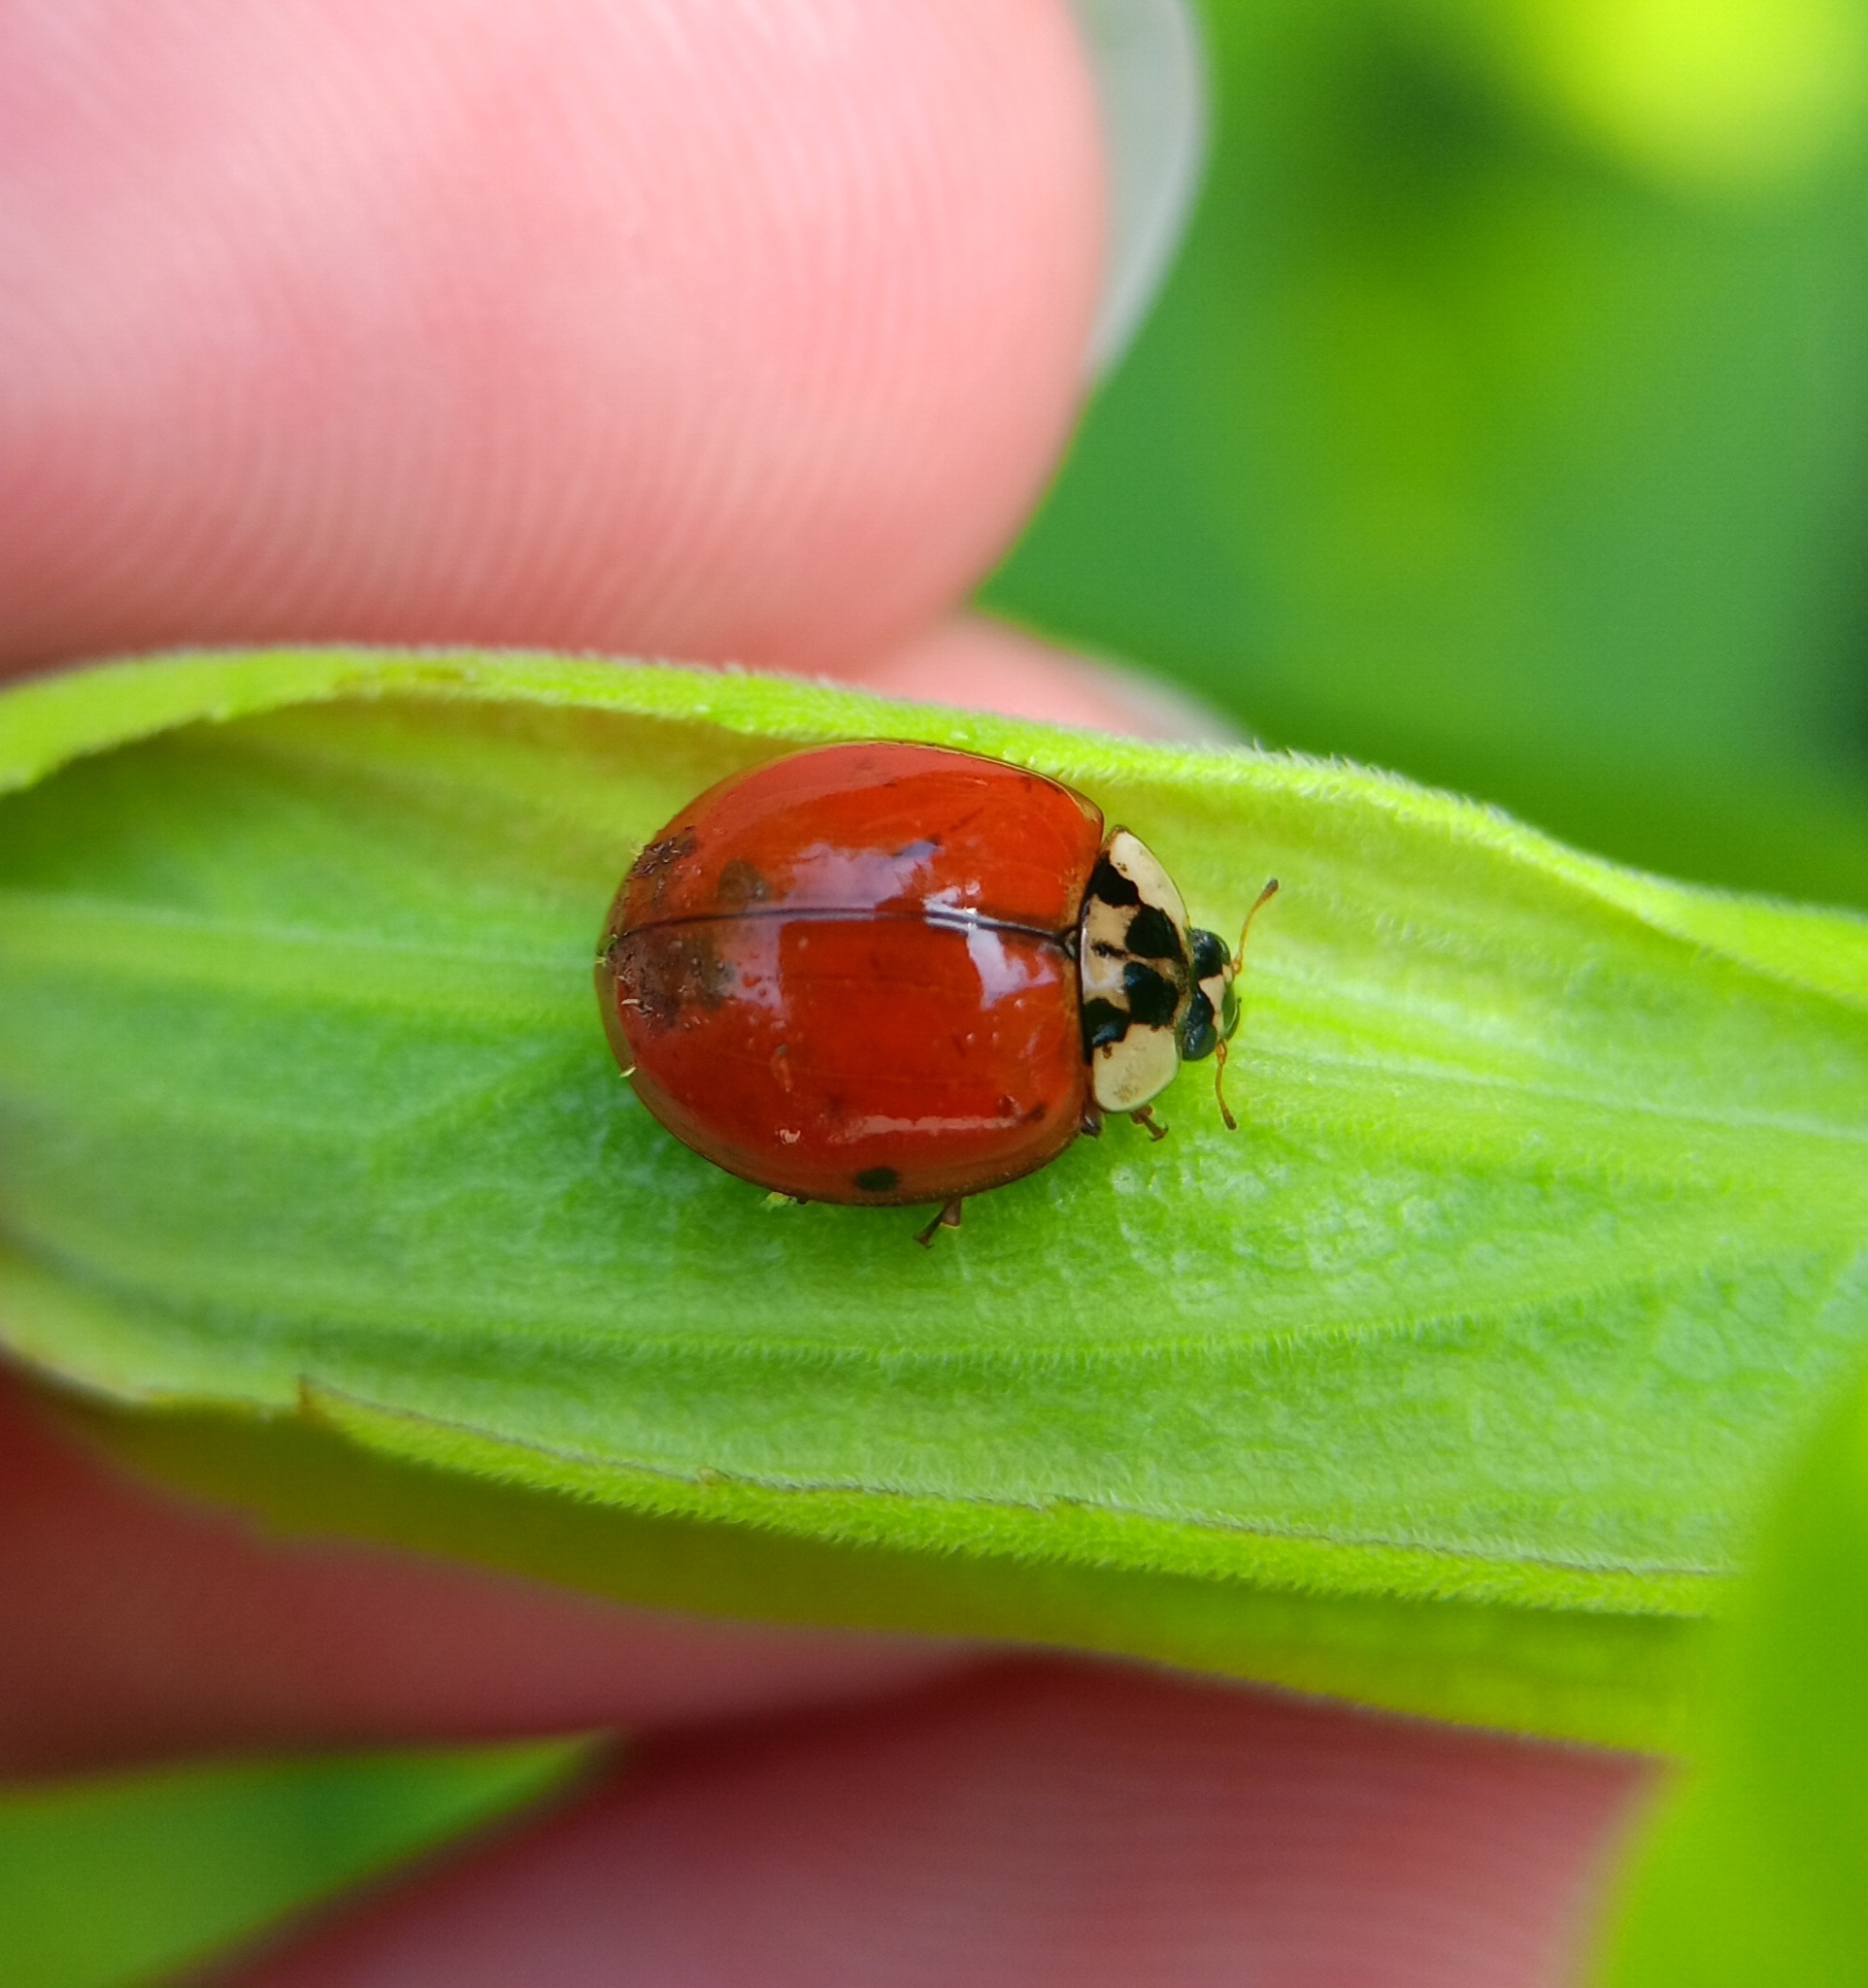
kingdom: Animalia
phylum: Arthropoda
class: Insecta
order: Coleoptera
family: Coccinellidae
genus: Harmonia
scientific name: Harmonia axyridis
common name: Harlequin ladybird
